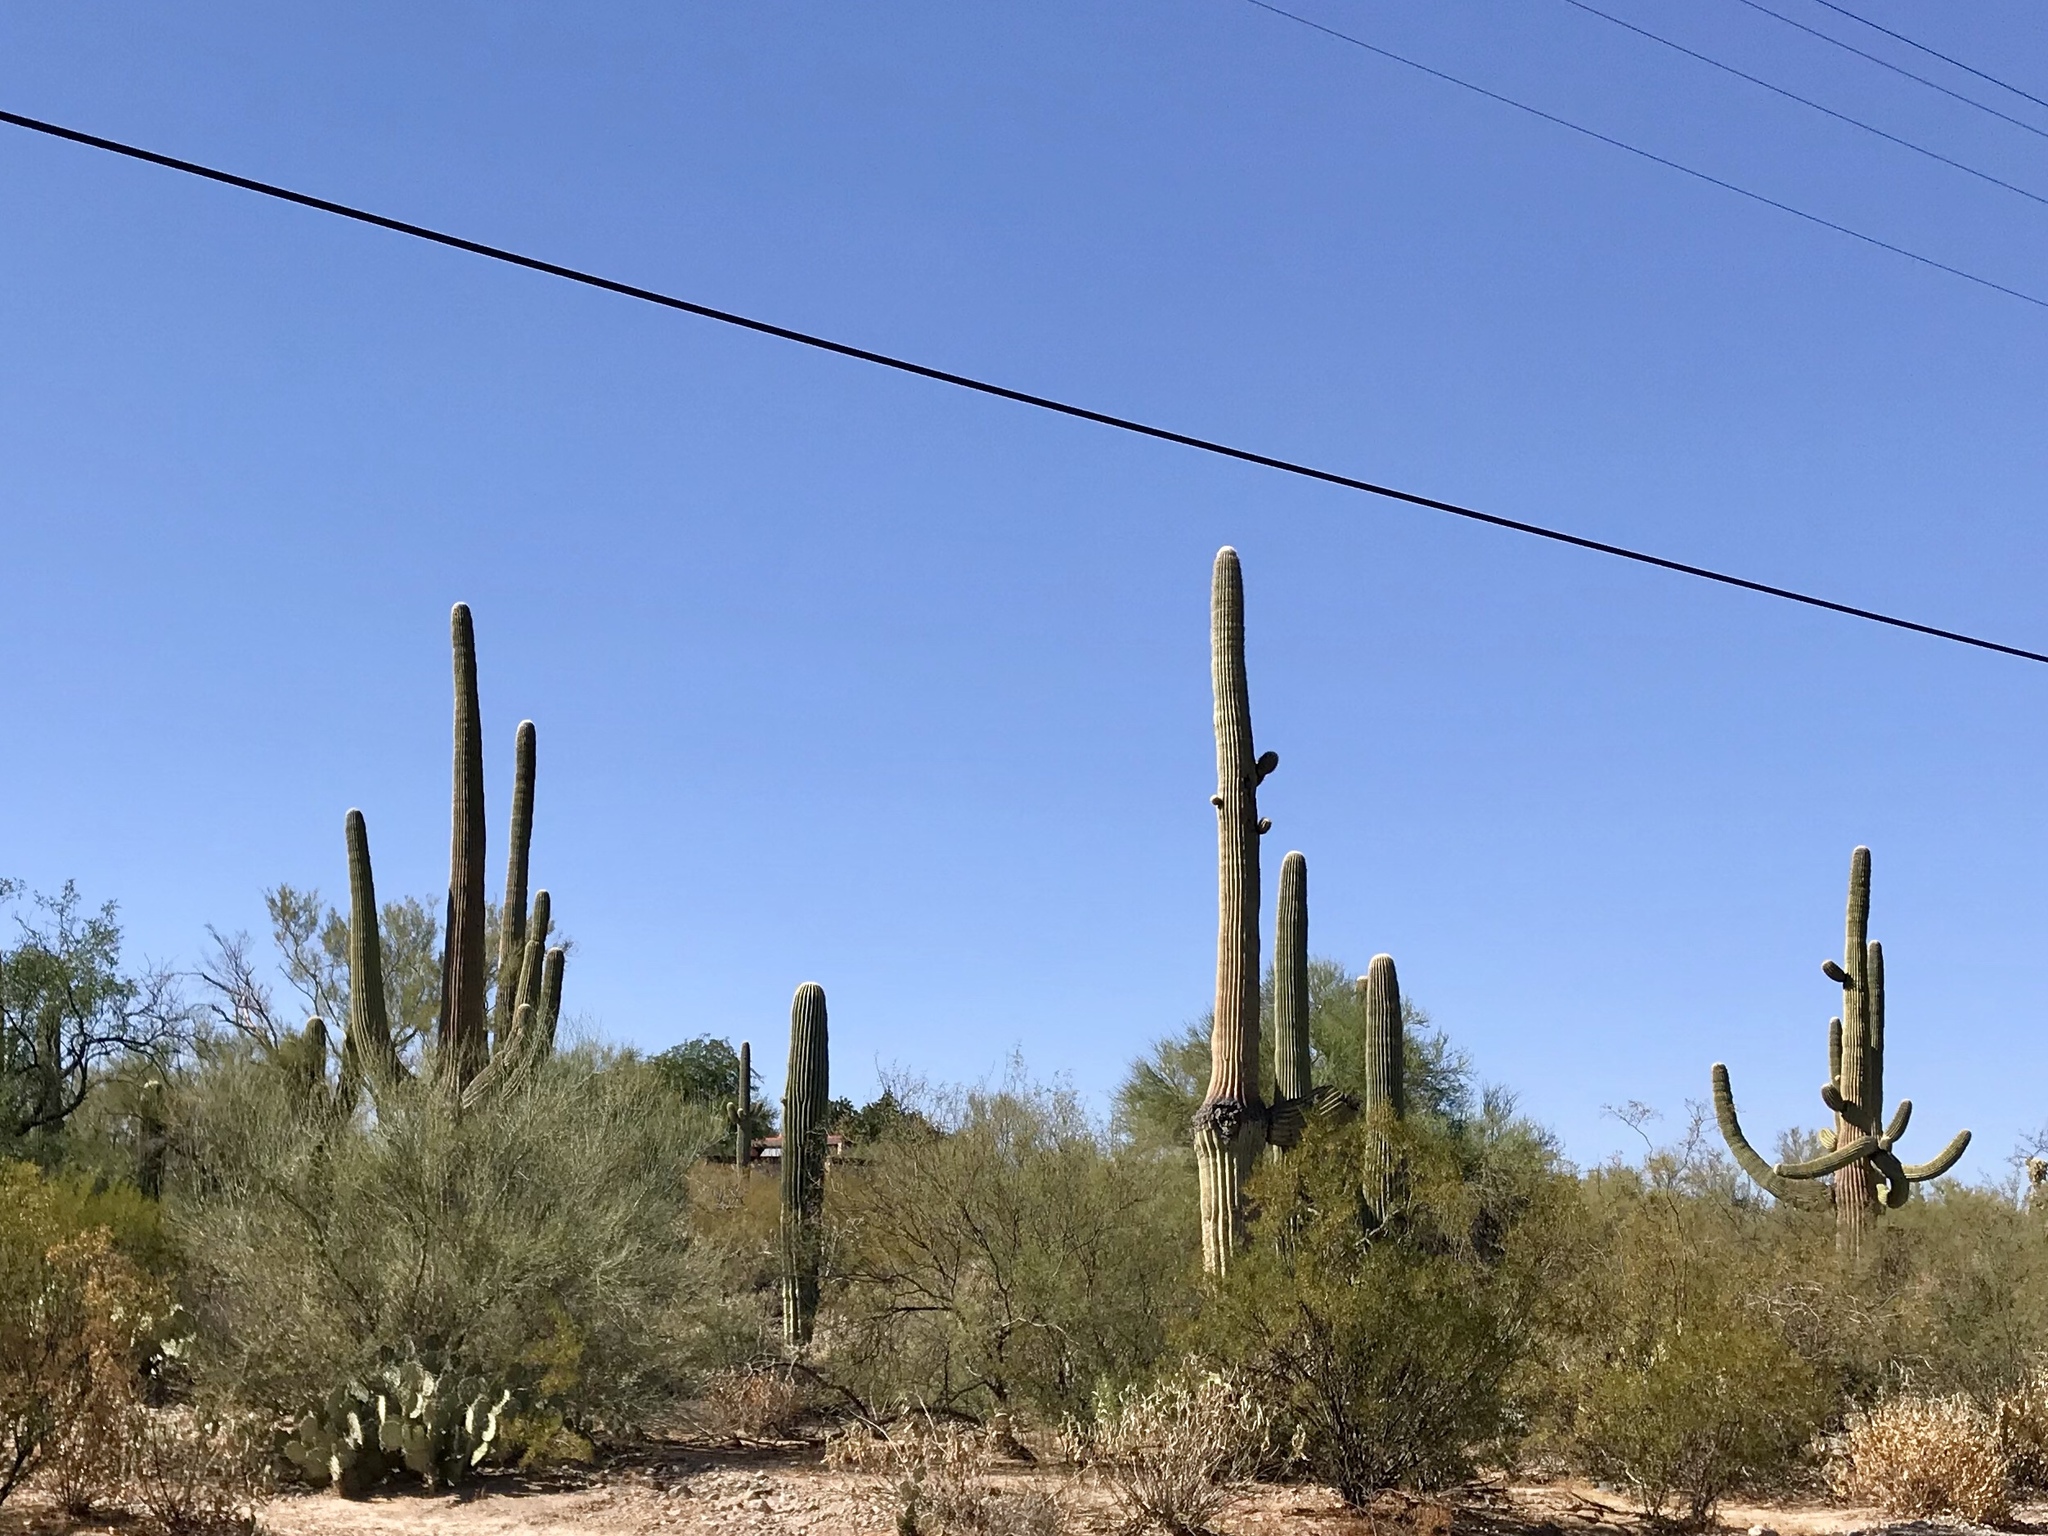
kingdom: Plantae
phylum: Tracheophyta
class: Magnoliopsida
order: Caryophyllales
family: Cactaceae
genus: Carnegiea
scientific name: Carnegiea gigantea
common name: Saguaro
